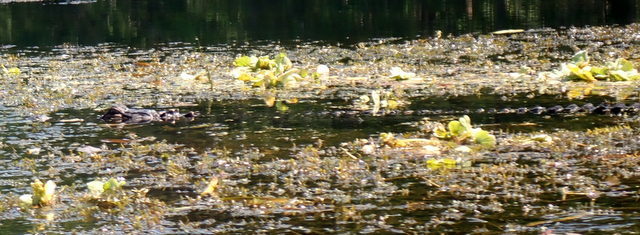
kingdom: Animalia
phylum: Chordata
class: Crocodylia
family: Alligatoridae
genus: Alligator
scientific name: Alligator mississippiensis
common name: American alligator
